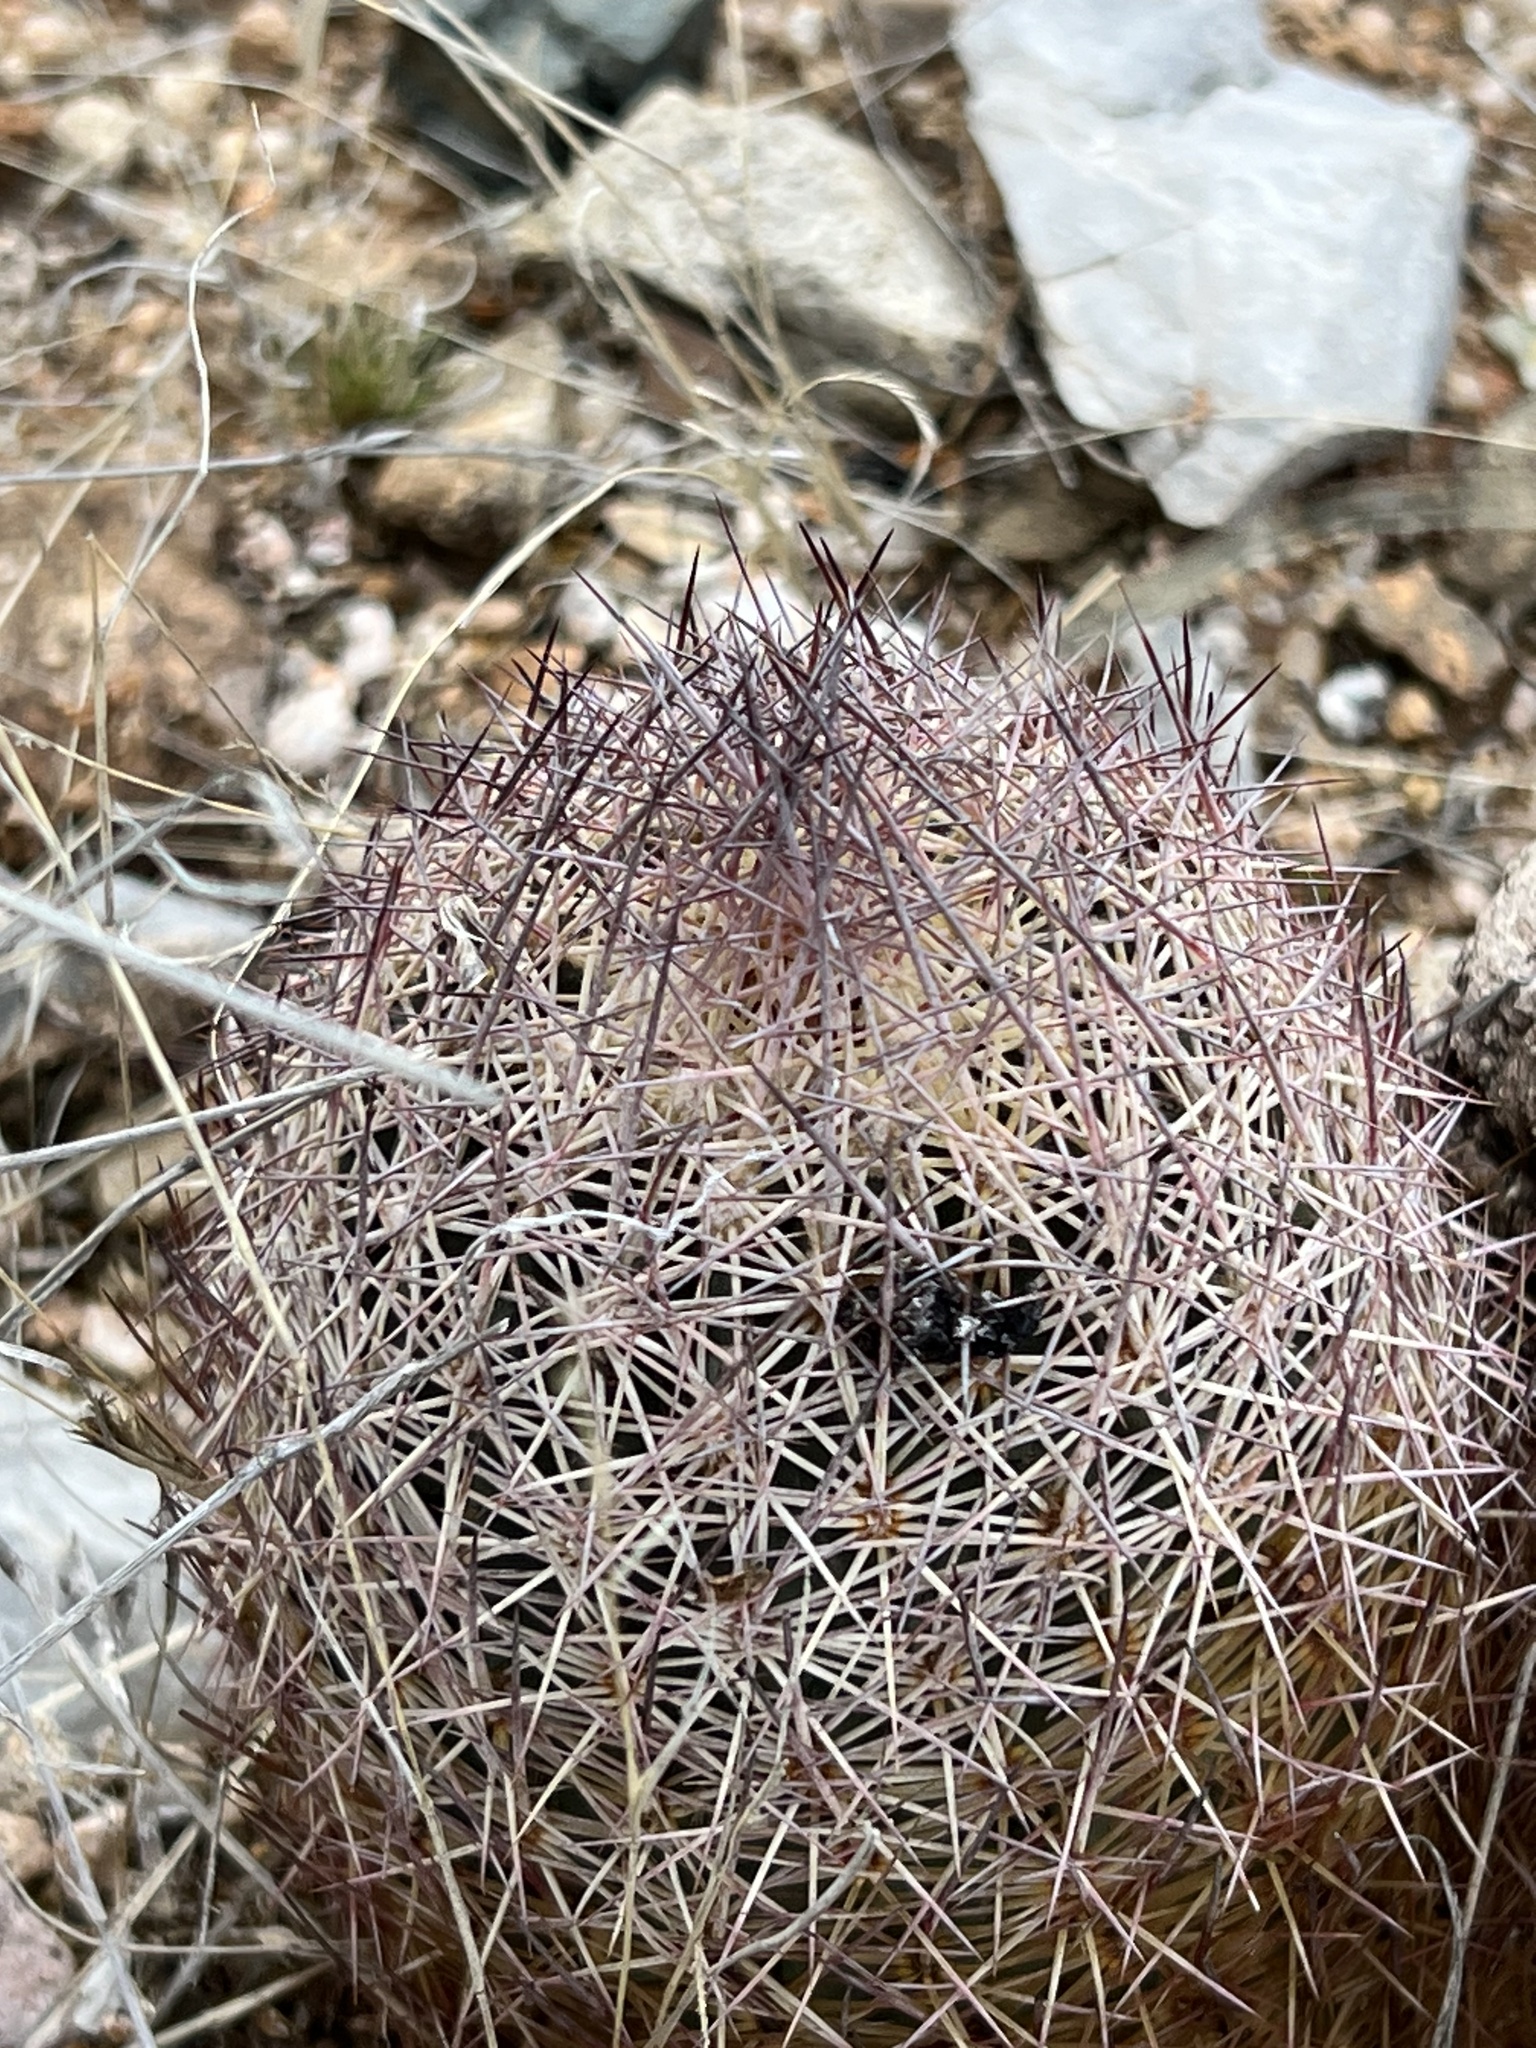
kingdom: Plantae
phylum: Tracheophyta
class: Magnoliopsida
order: Caryophyllales
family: Cactaceae
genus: Sclerocactus
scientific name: Sclerocactus johnsonii
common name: Eight-spine fishhook cactus
